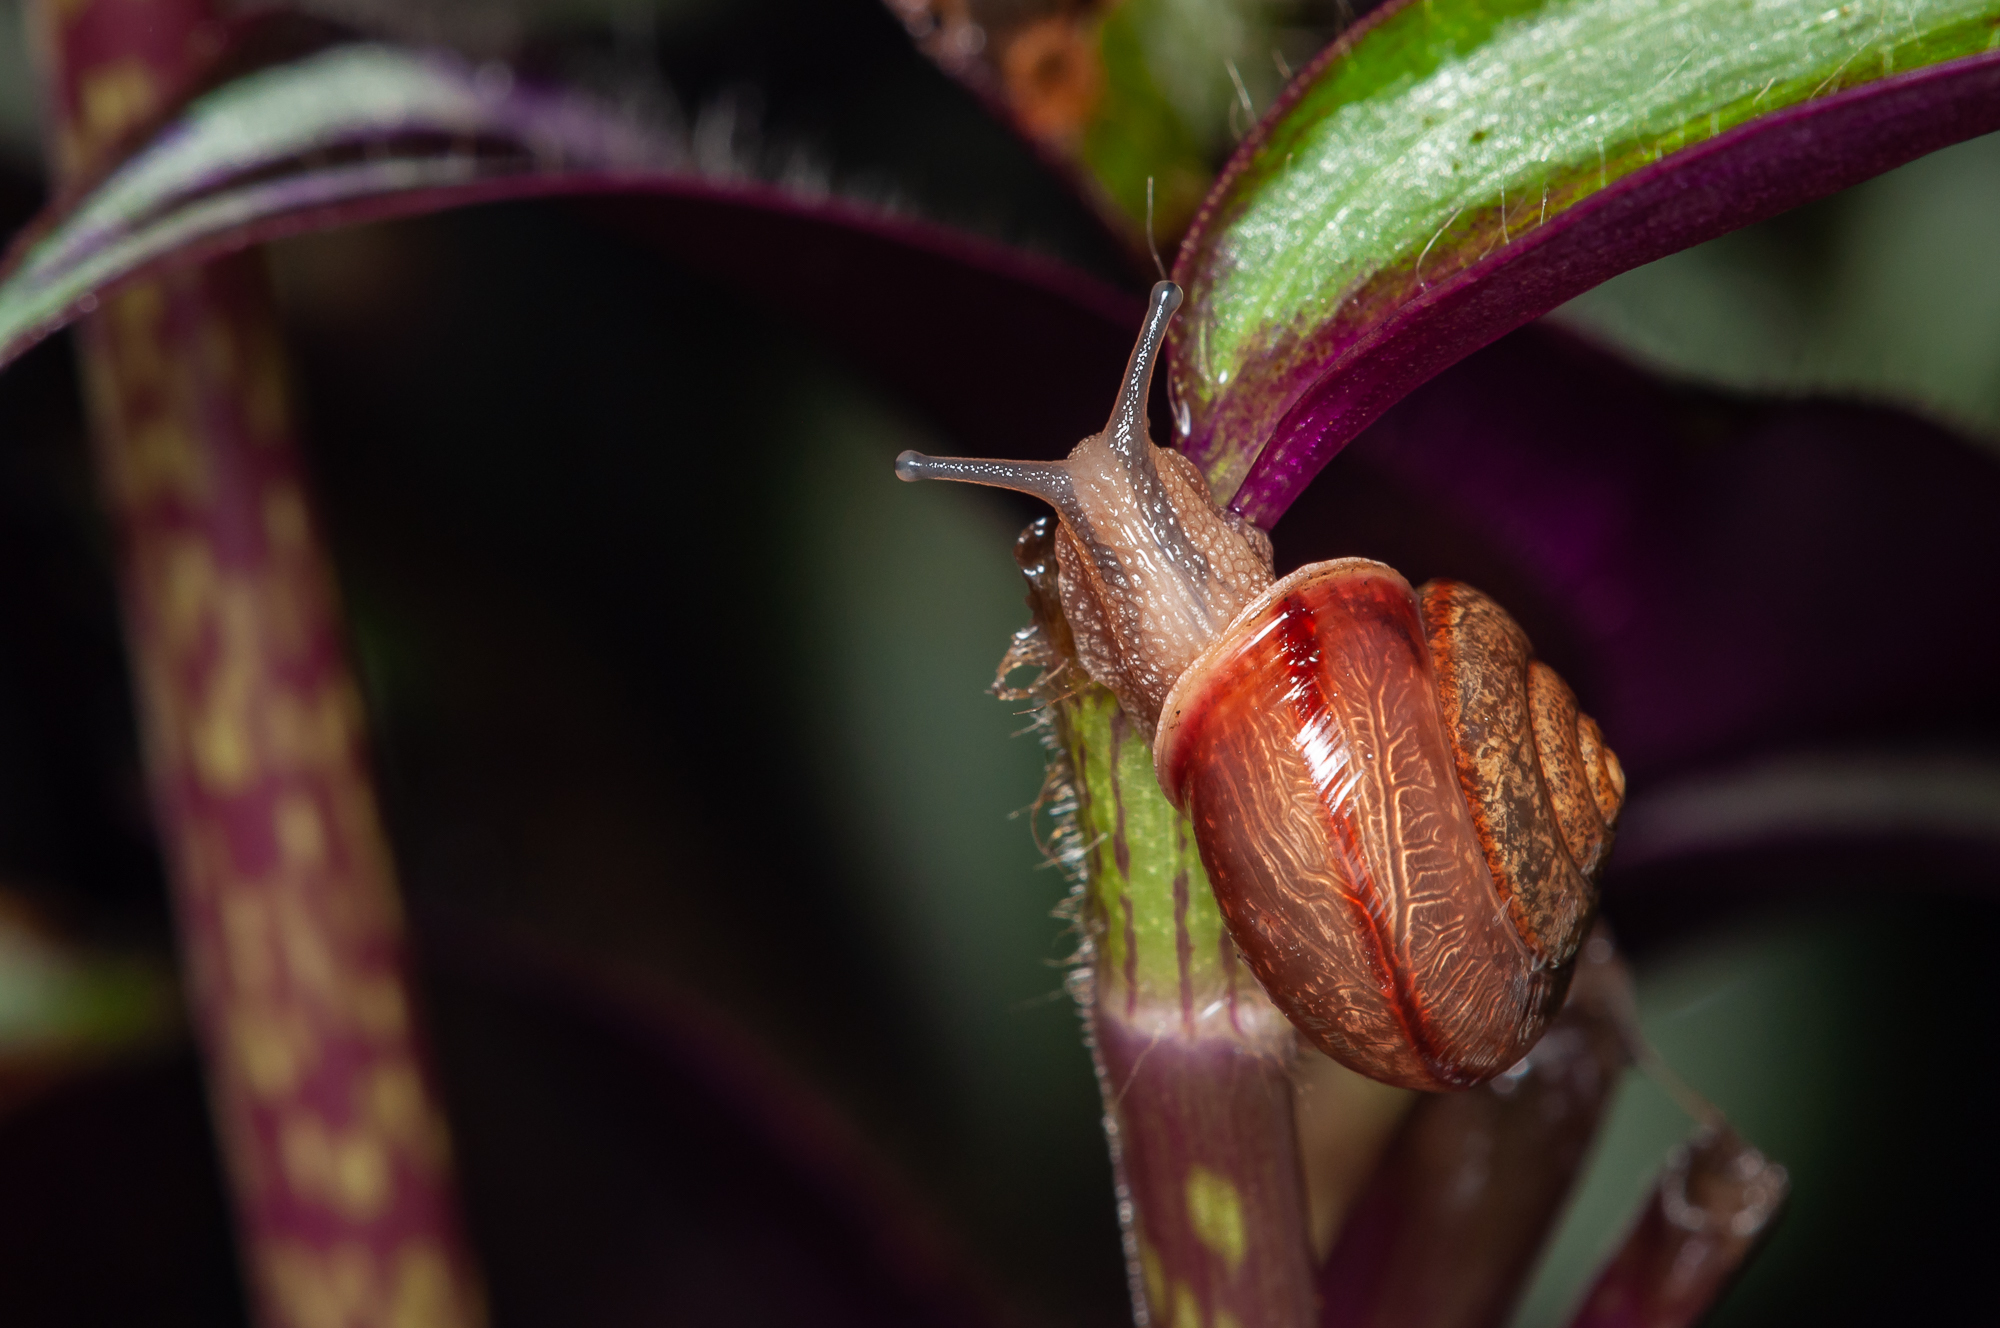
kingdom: Animalia
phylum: Mollusca
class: Gastropoda
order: Stylommatophora
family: Camaenidae
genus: Bradybaena
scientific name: Bradybaena similaris
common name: Asian trampsnail
